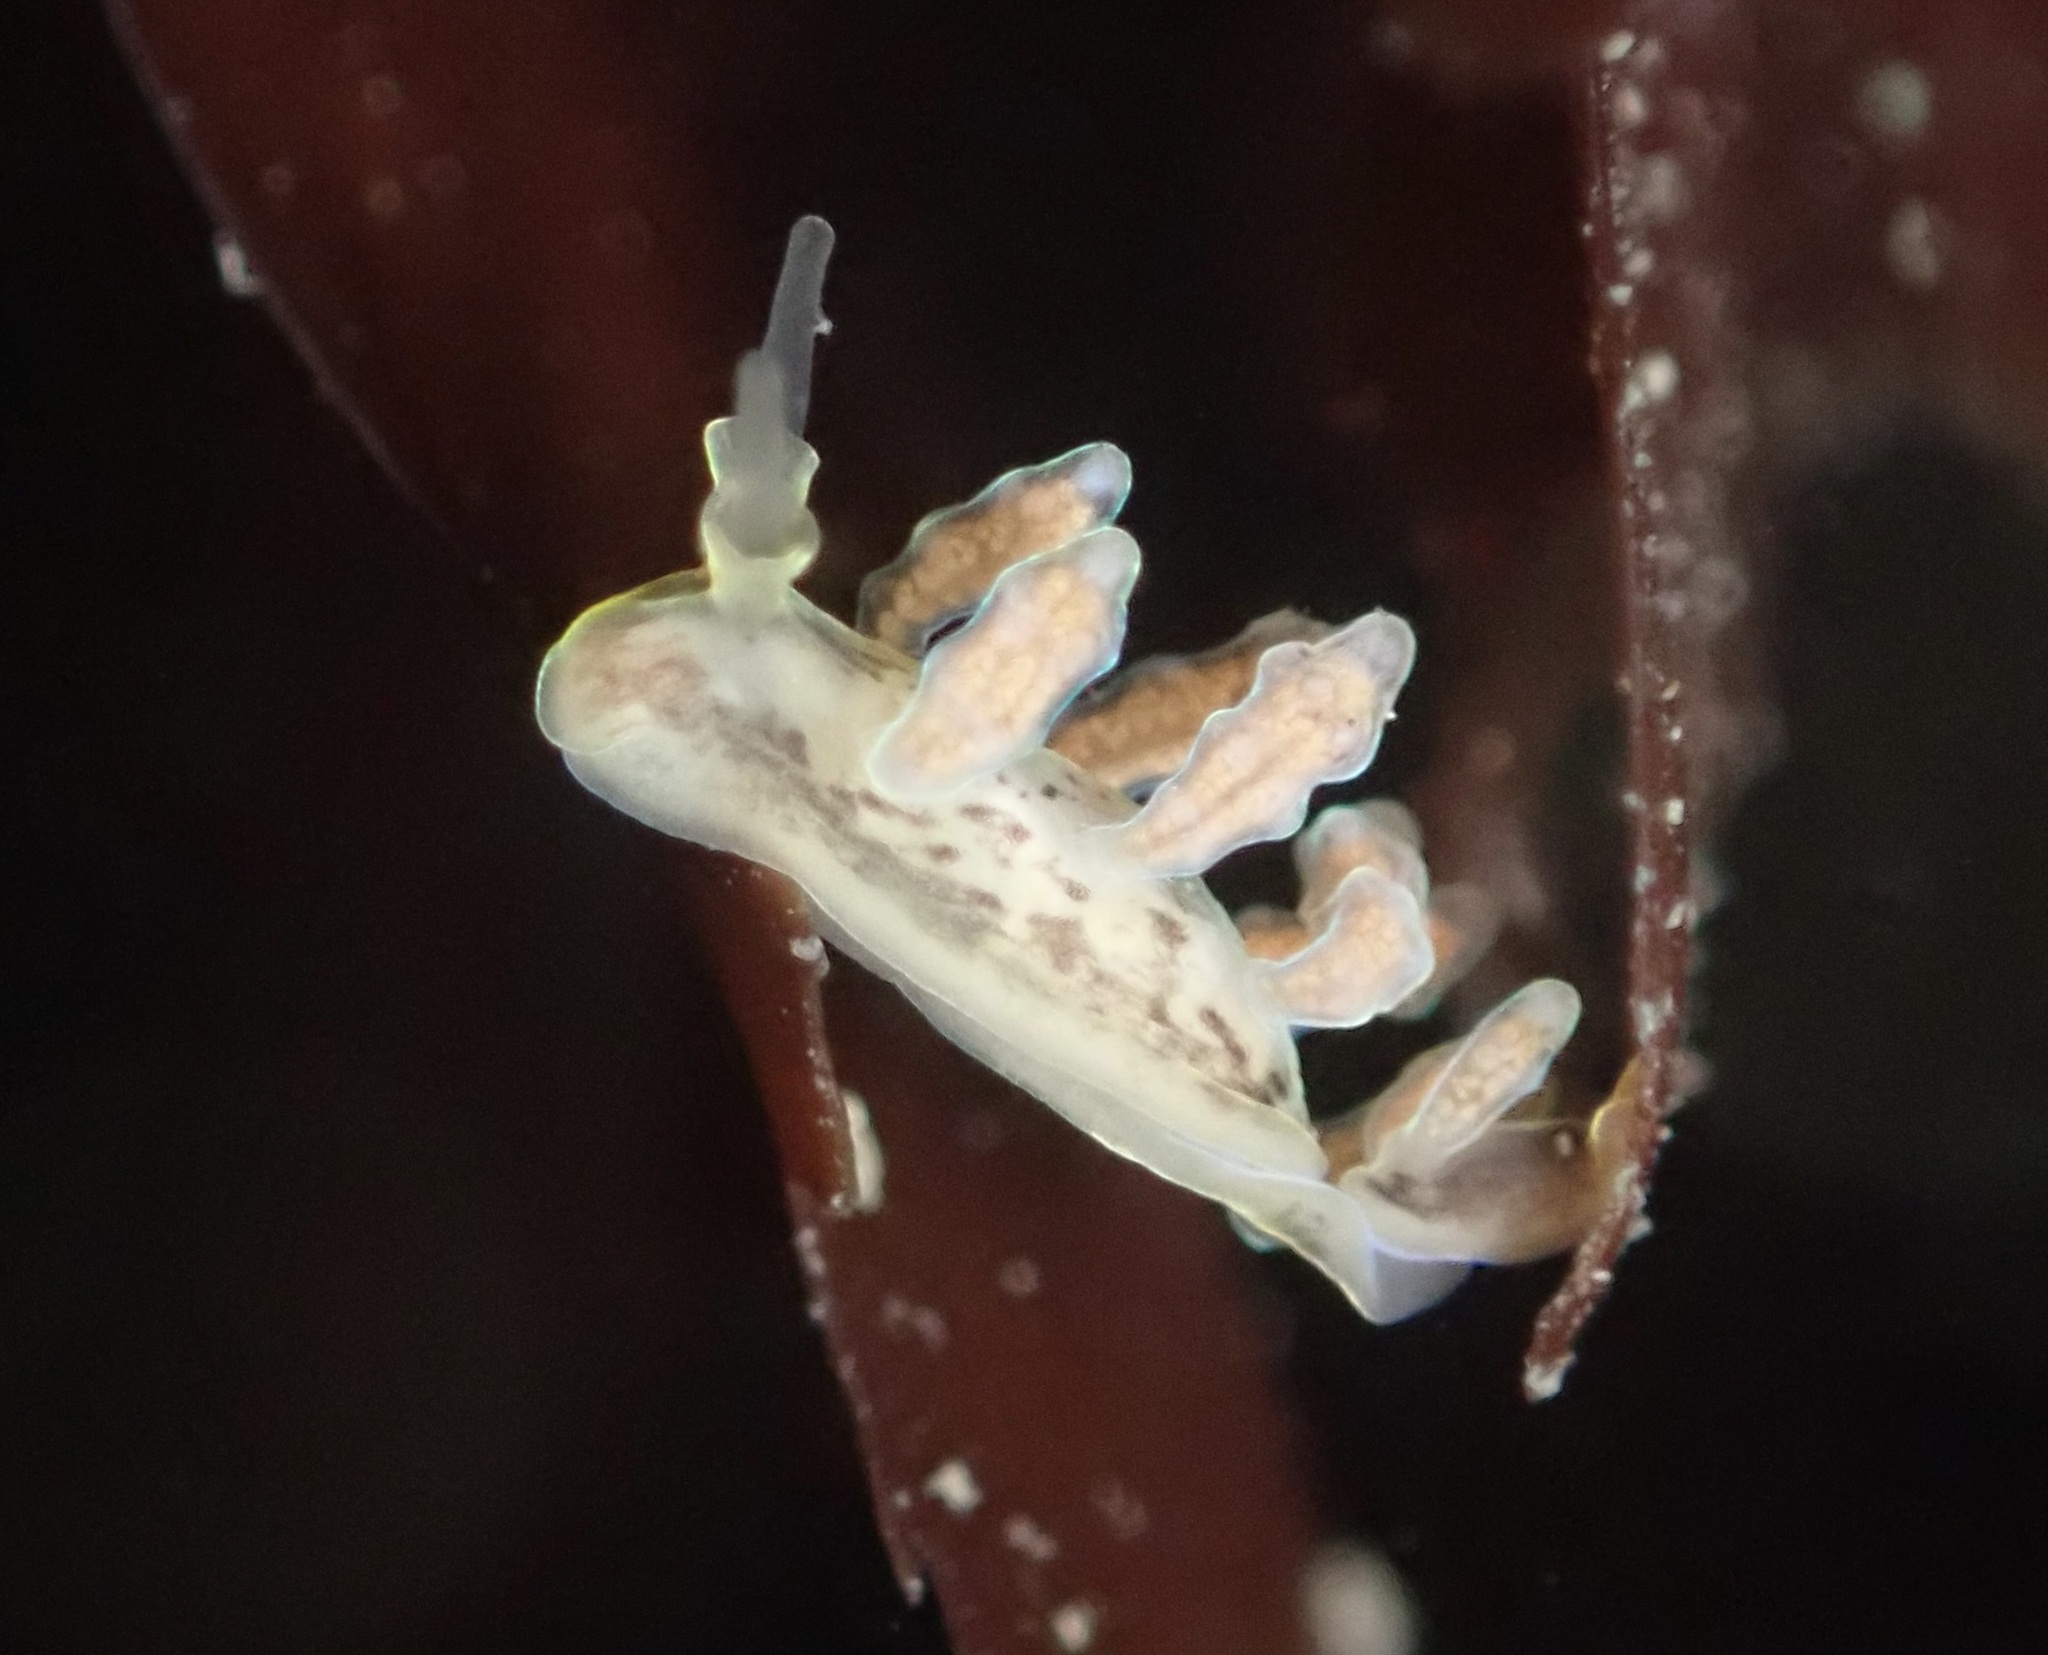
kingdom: Animalia
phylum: Mollusca
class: Gastropoda
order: Nudibranchia
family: Dotidae
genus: Doto
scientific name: Doto columbiana
